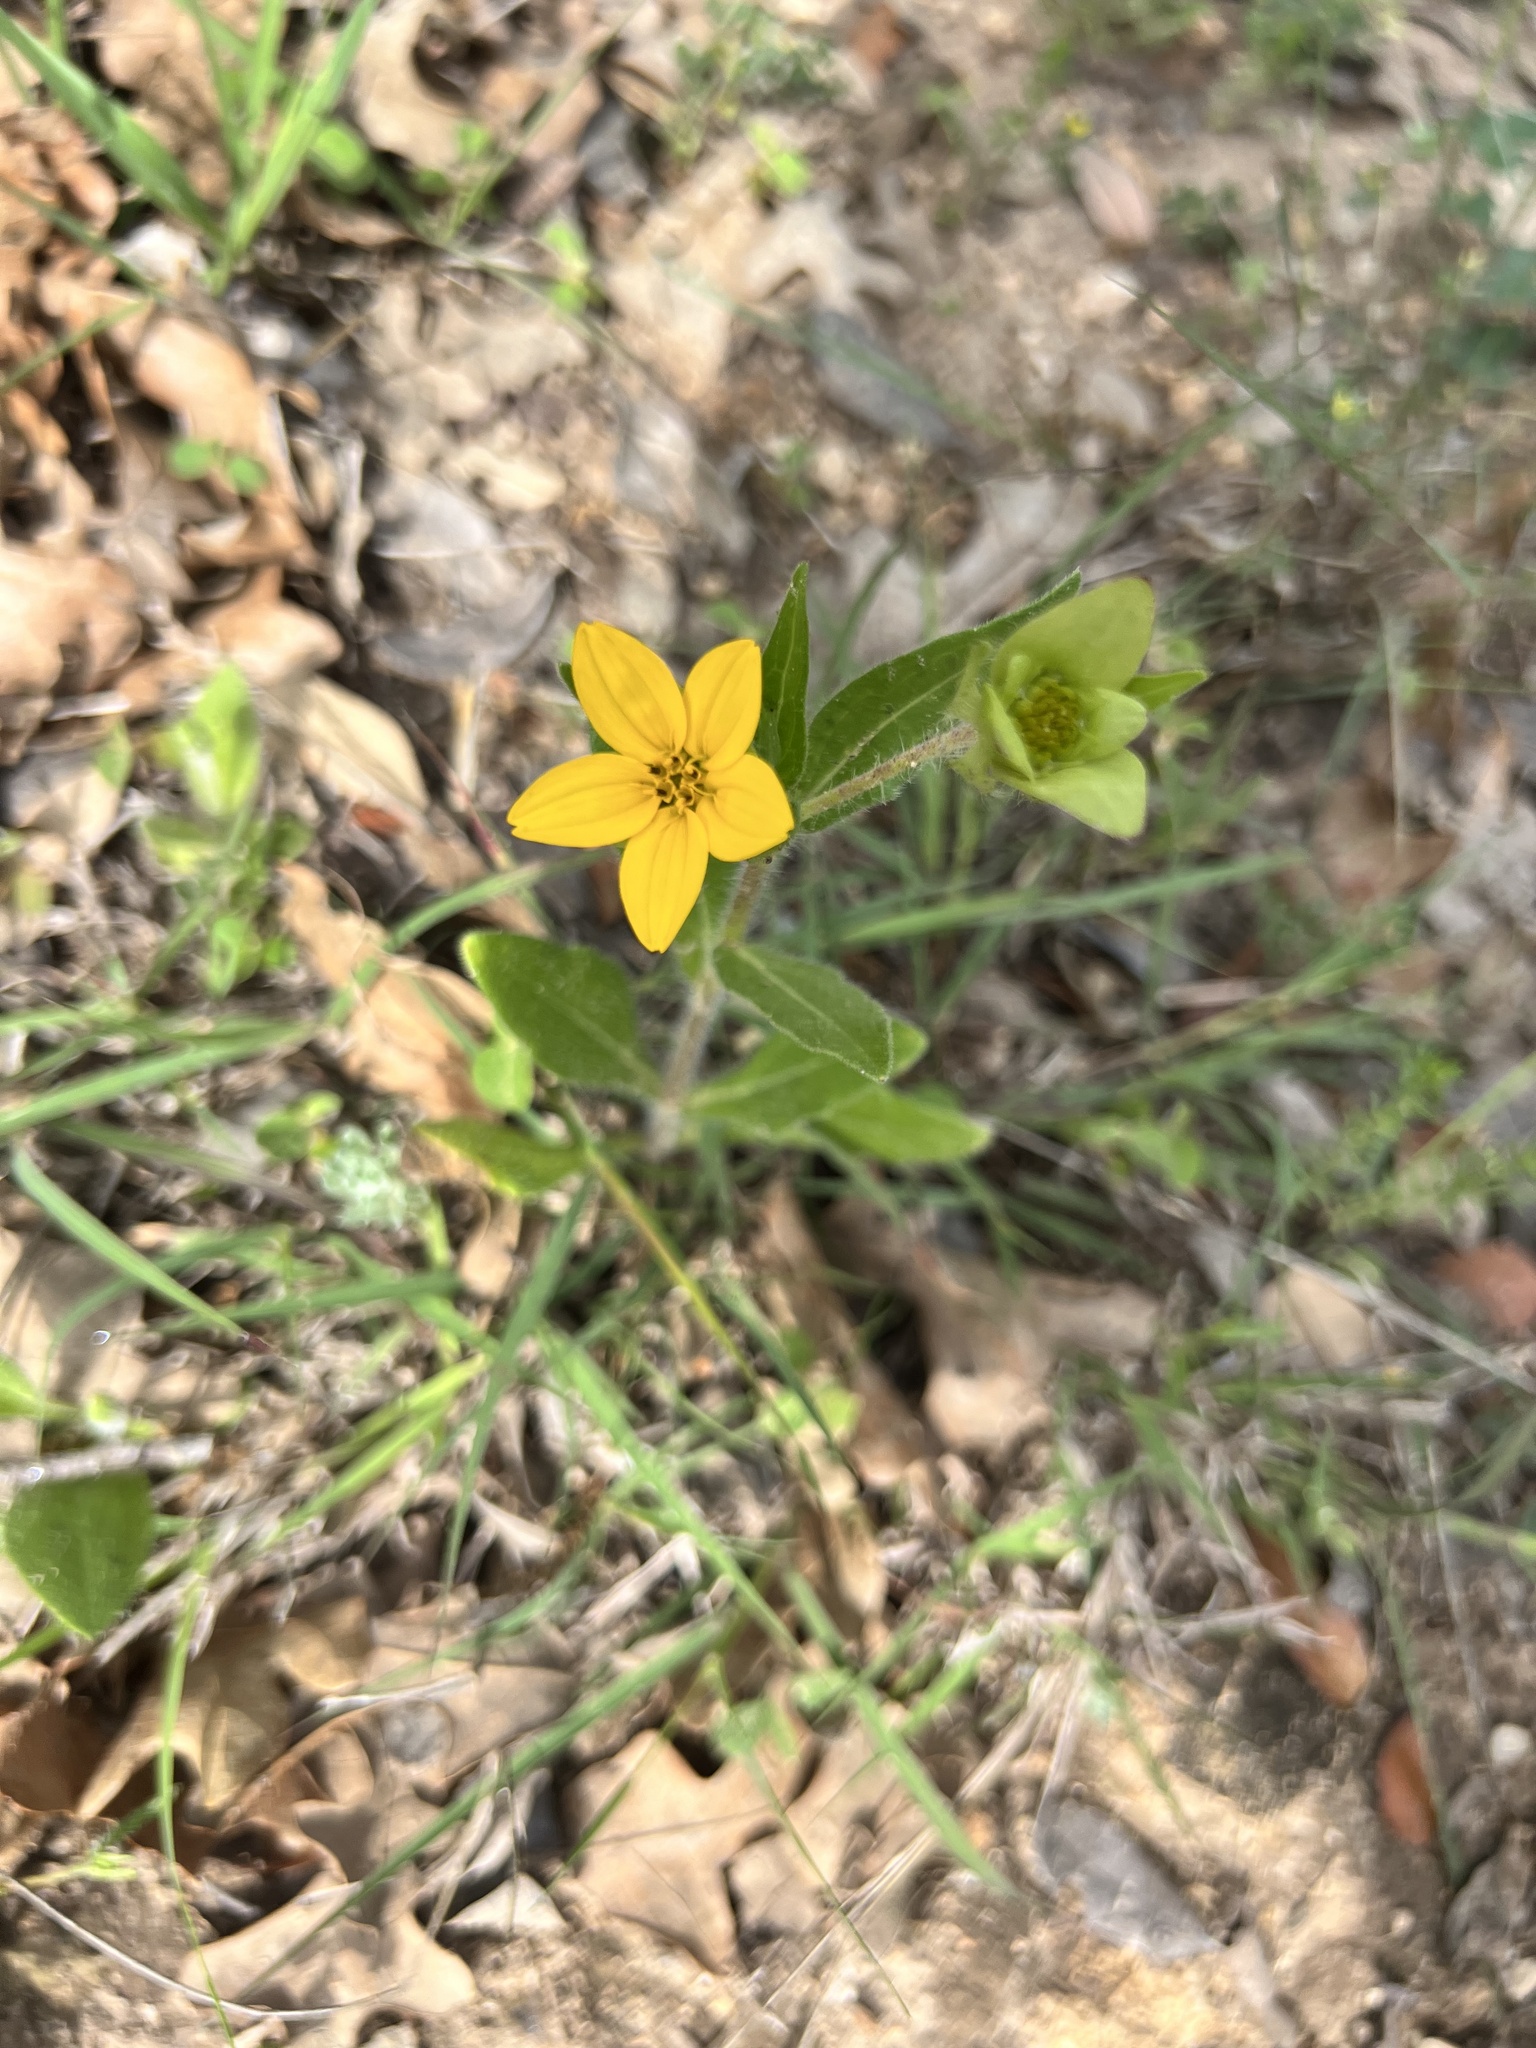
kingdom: Plantae
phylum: Tracheophyta
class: Magnoliopsida
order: Asterales
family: Asteraceae
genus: Lindheimera
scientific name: Lindheimera texana
